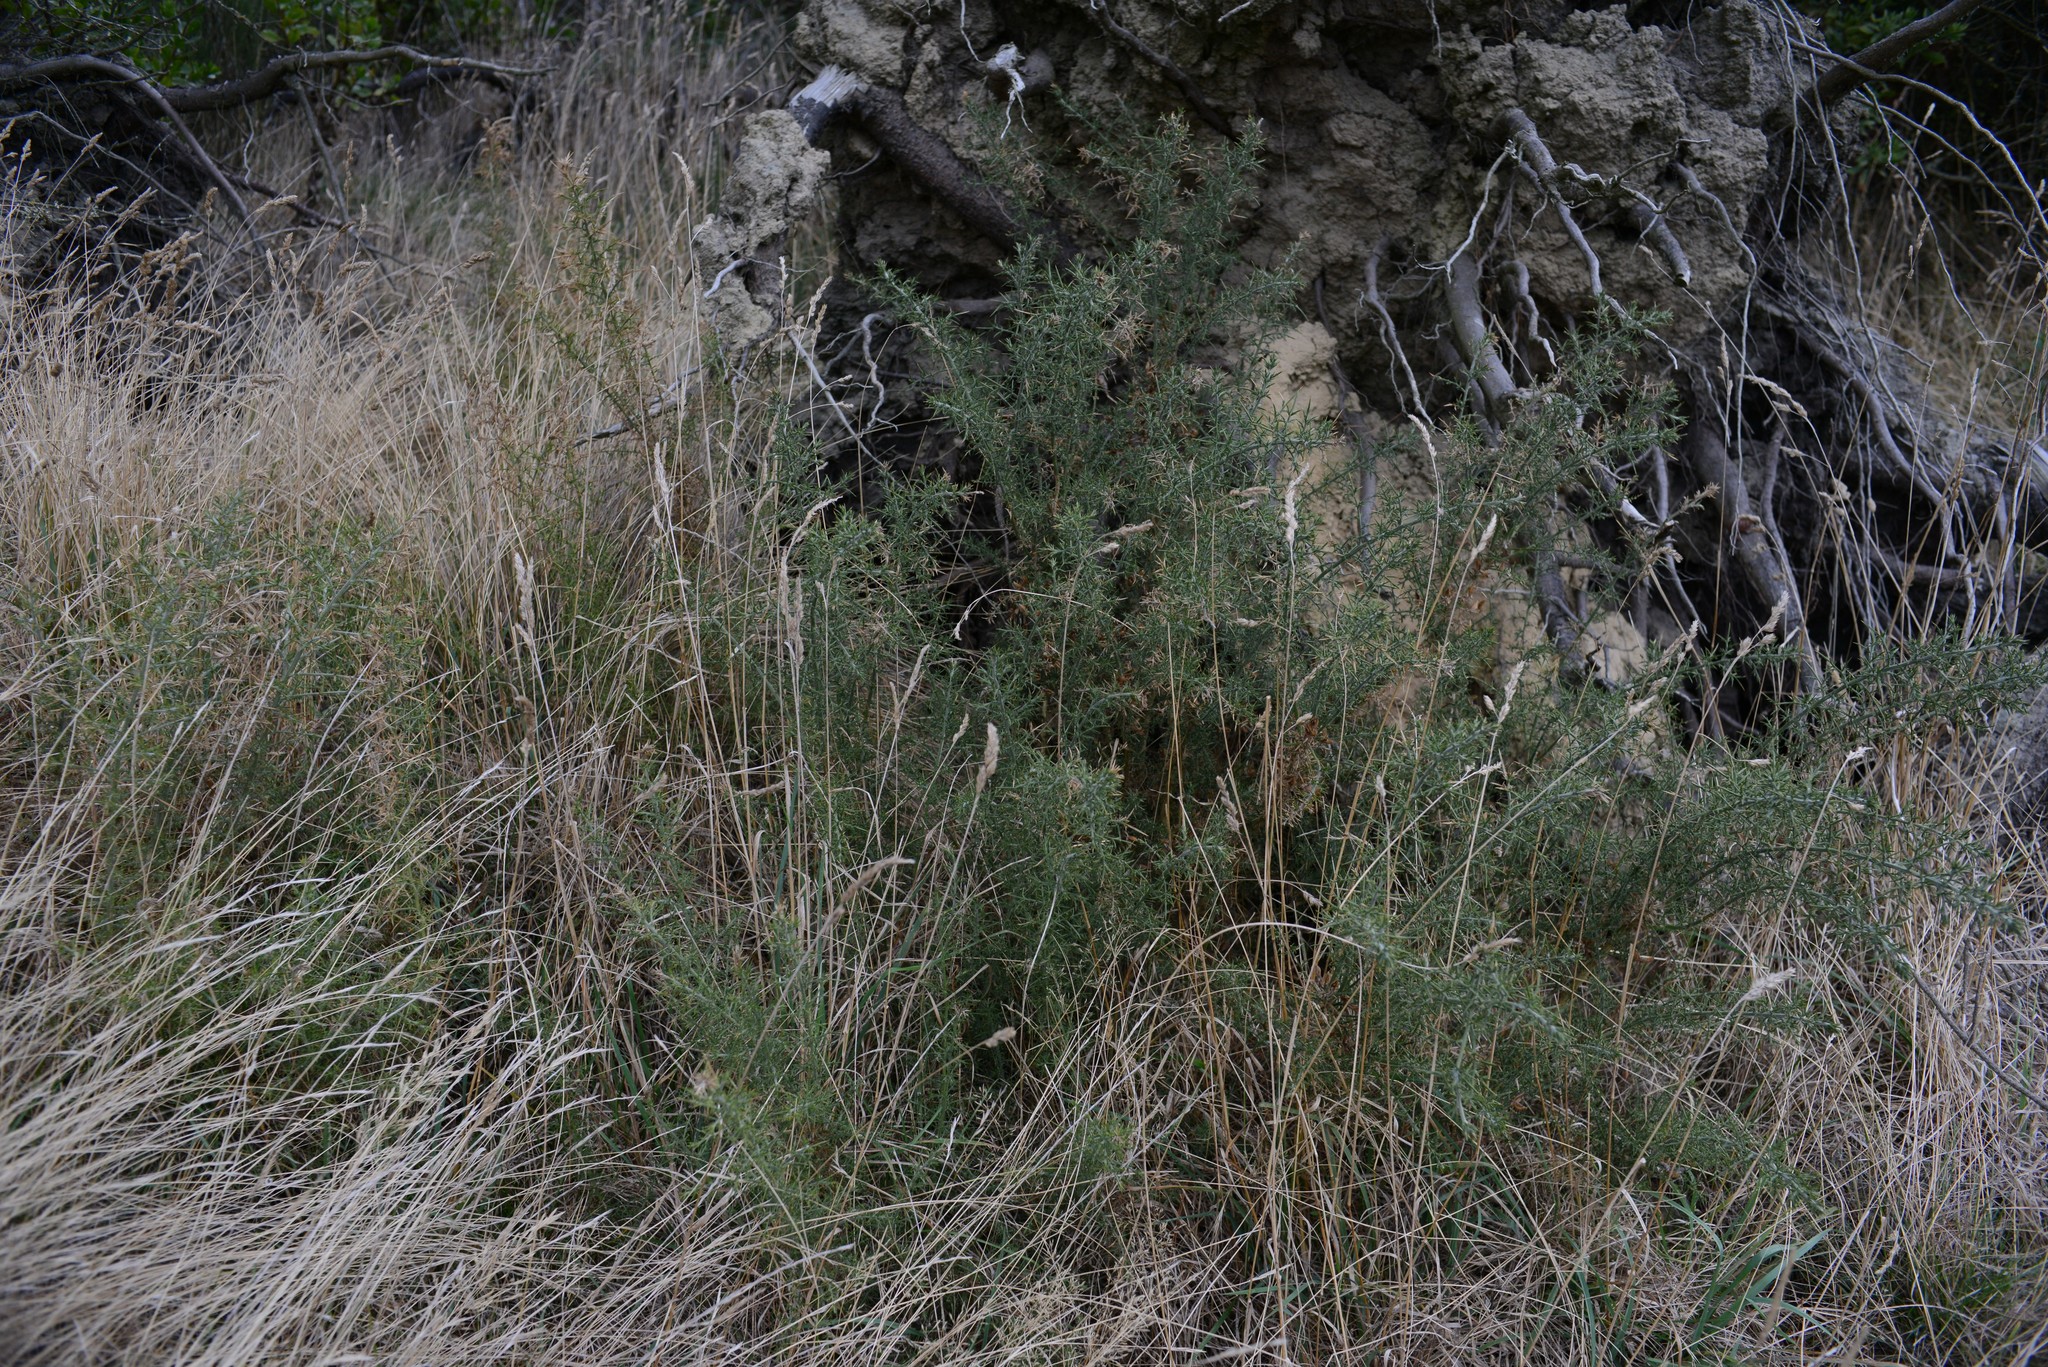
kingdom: Plantae
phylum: Tracheophyta
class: Magnoliopsida
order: Fabales
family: Fabaceae
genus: Ulex
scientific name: Ulex europaeus
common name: Common gorse
